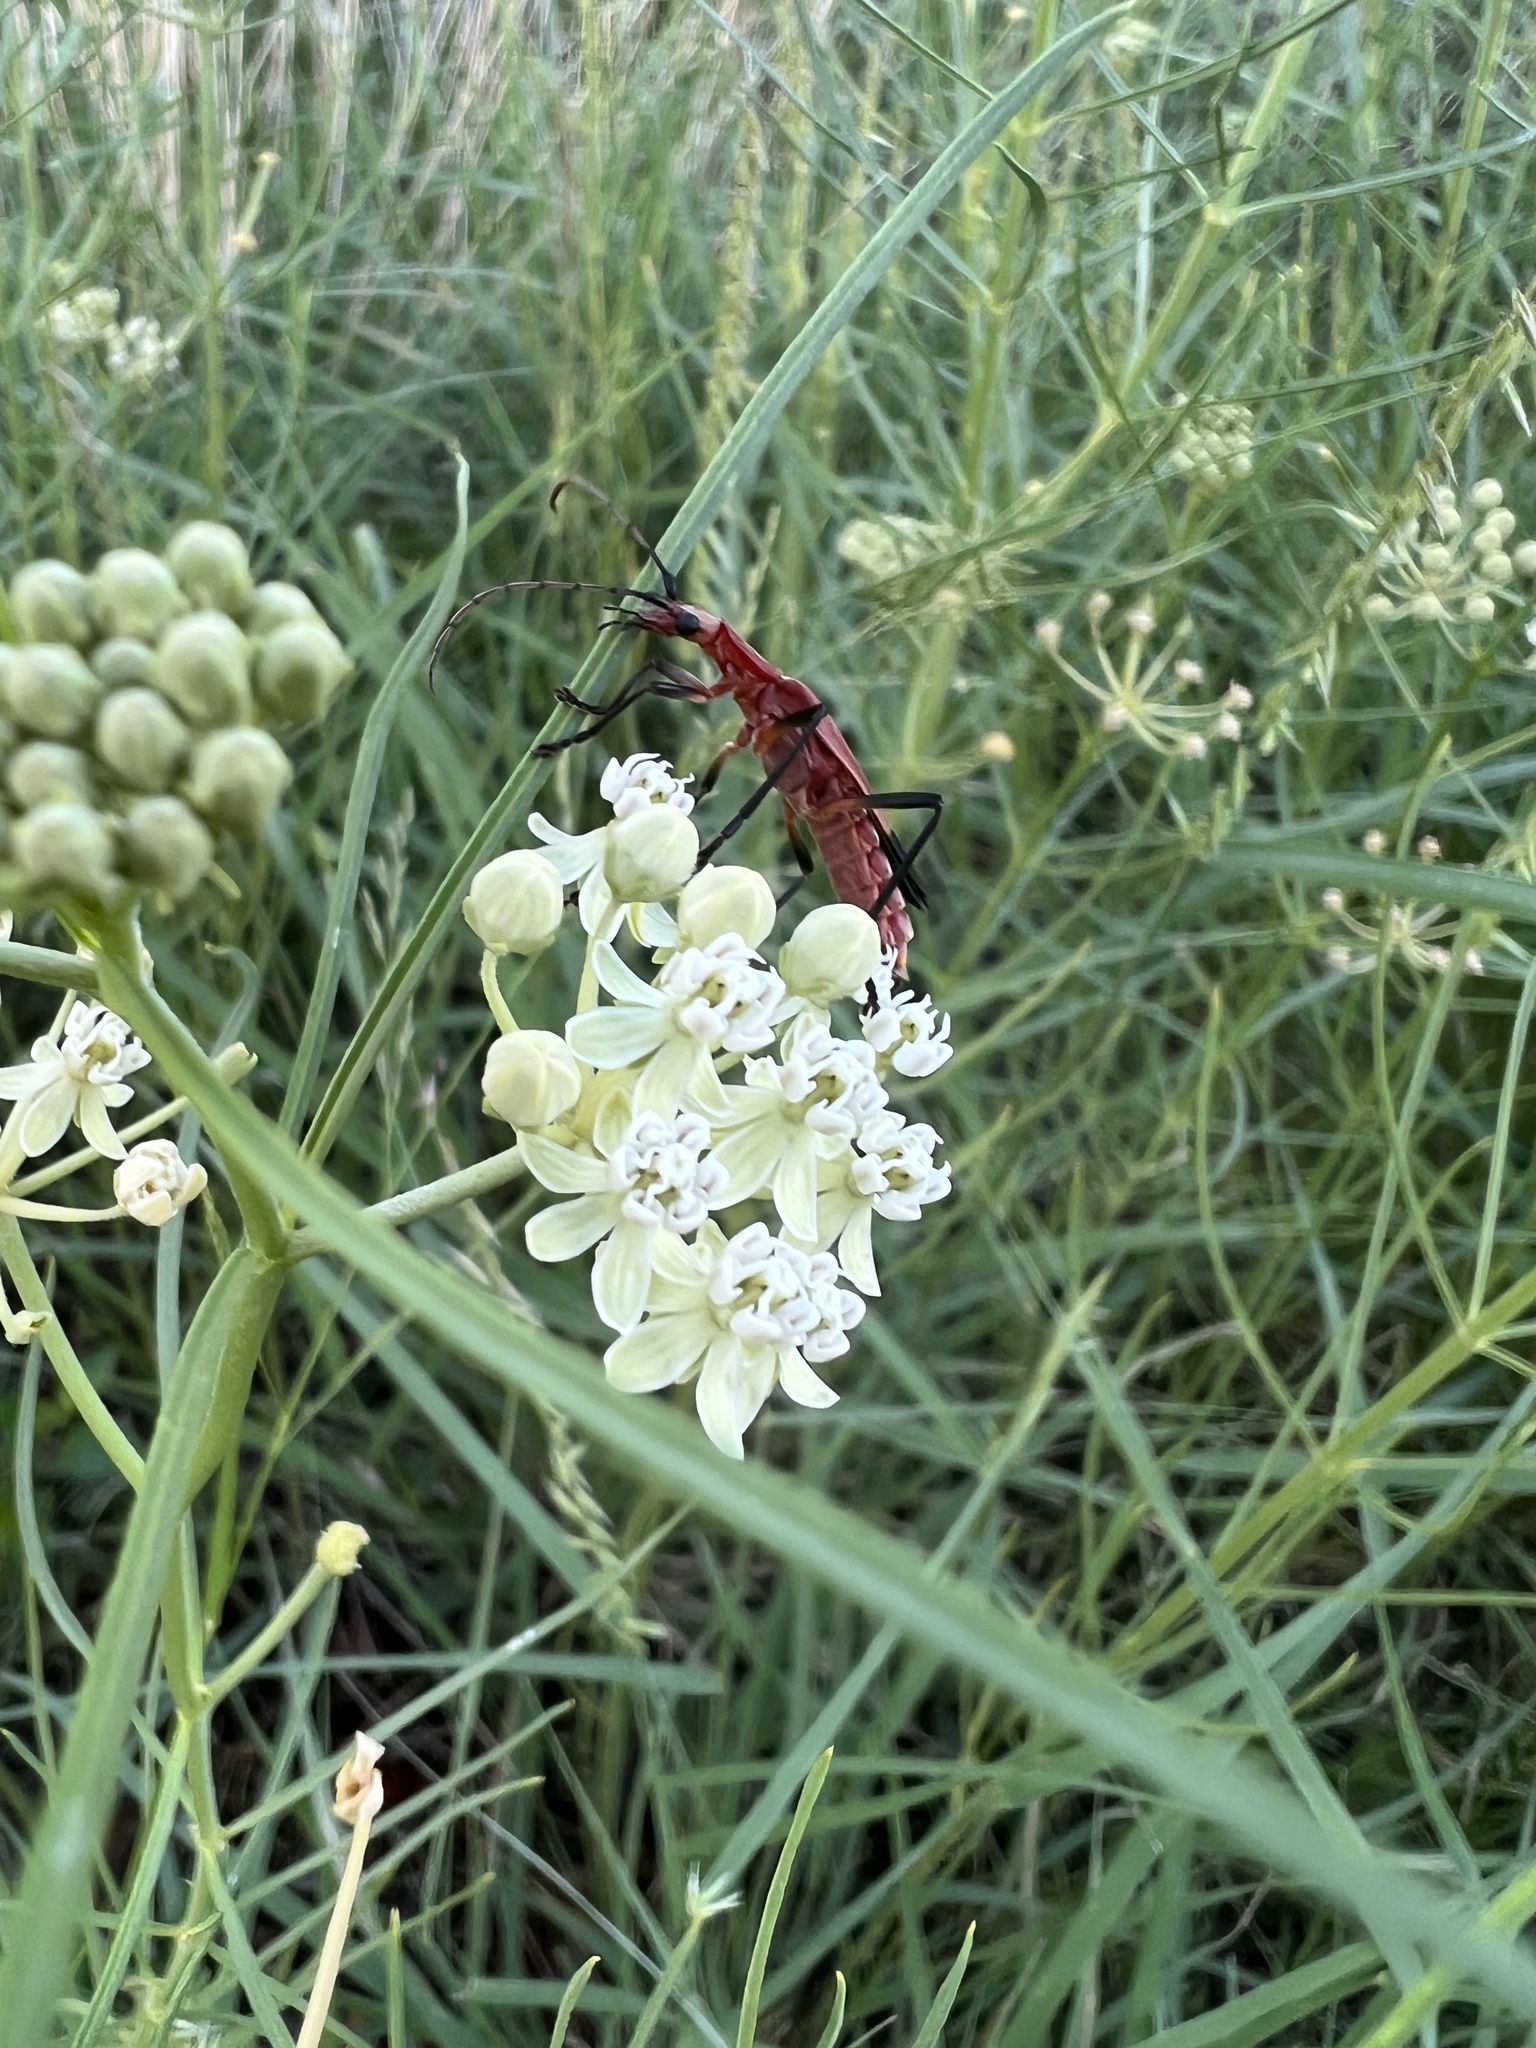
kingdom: Animalia
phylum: Arthropoda
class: Insecta
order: Coleoptera
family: Cantharidae
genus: Chauliognathus
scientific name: Chauliognathus lecontei
